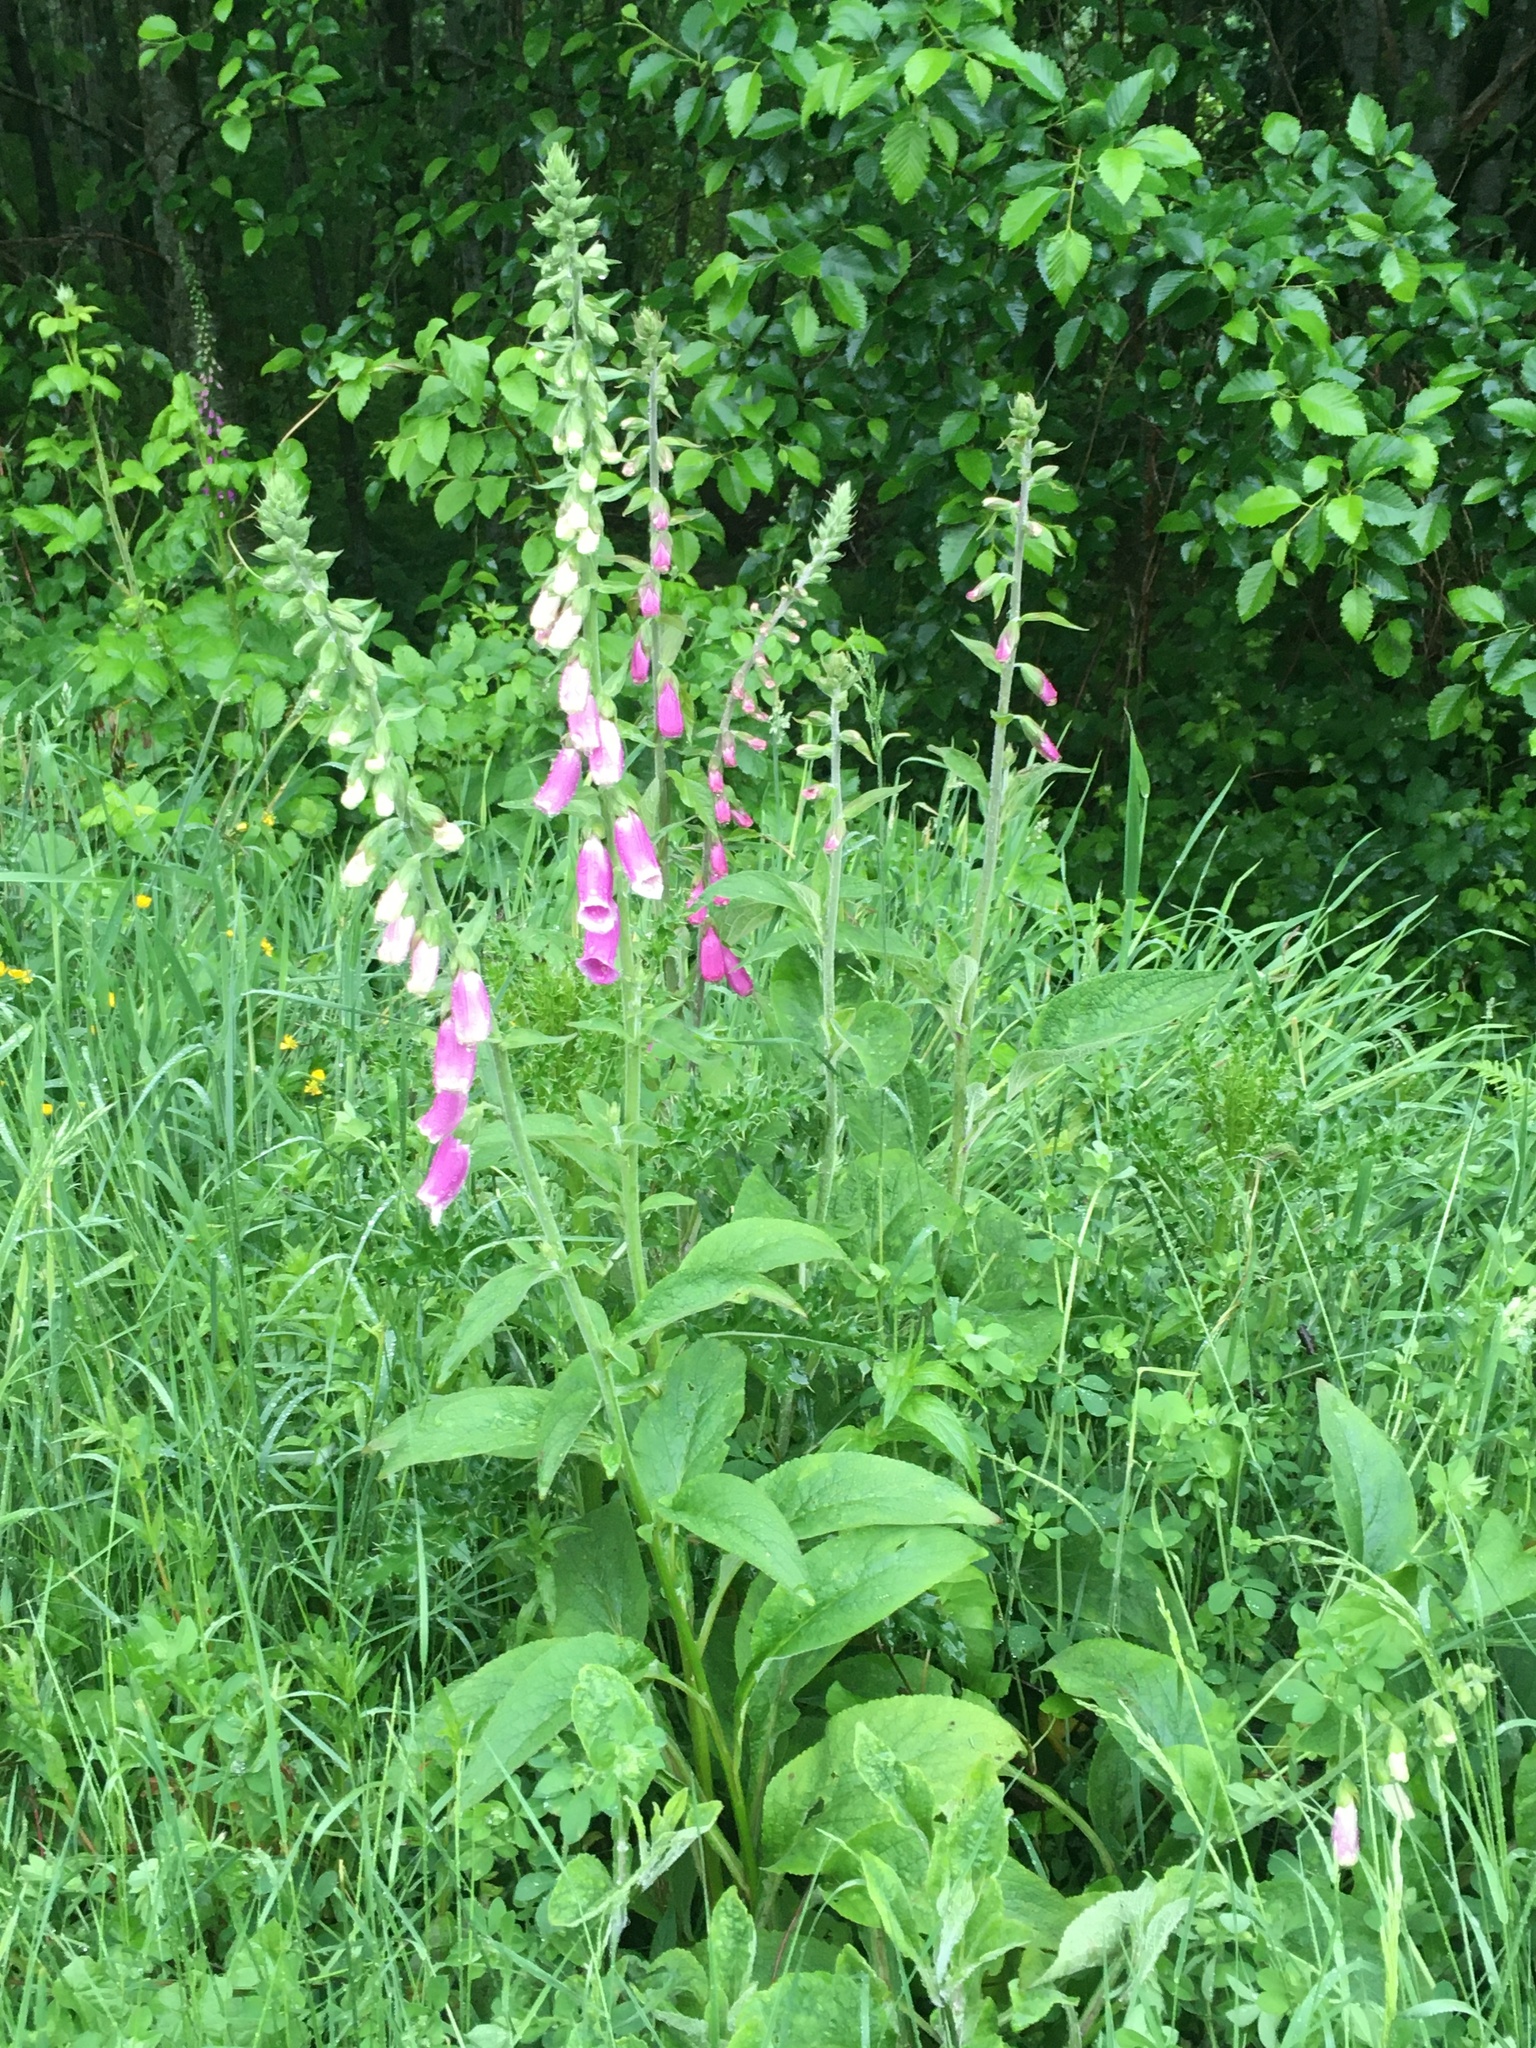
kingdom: Plantae
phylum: Tracheophyta
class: Magnoliopsida
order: Lamiales
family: Plantaginaceae
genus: Digitalis
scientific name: Digitalis purpurea
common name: Foxglove
